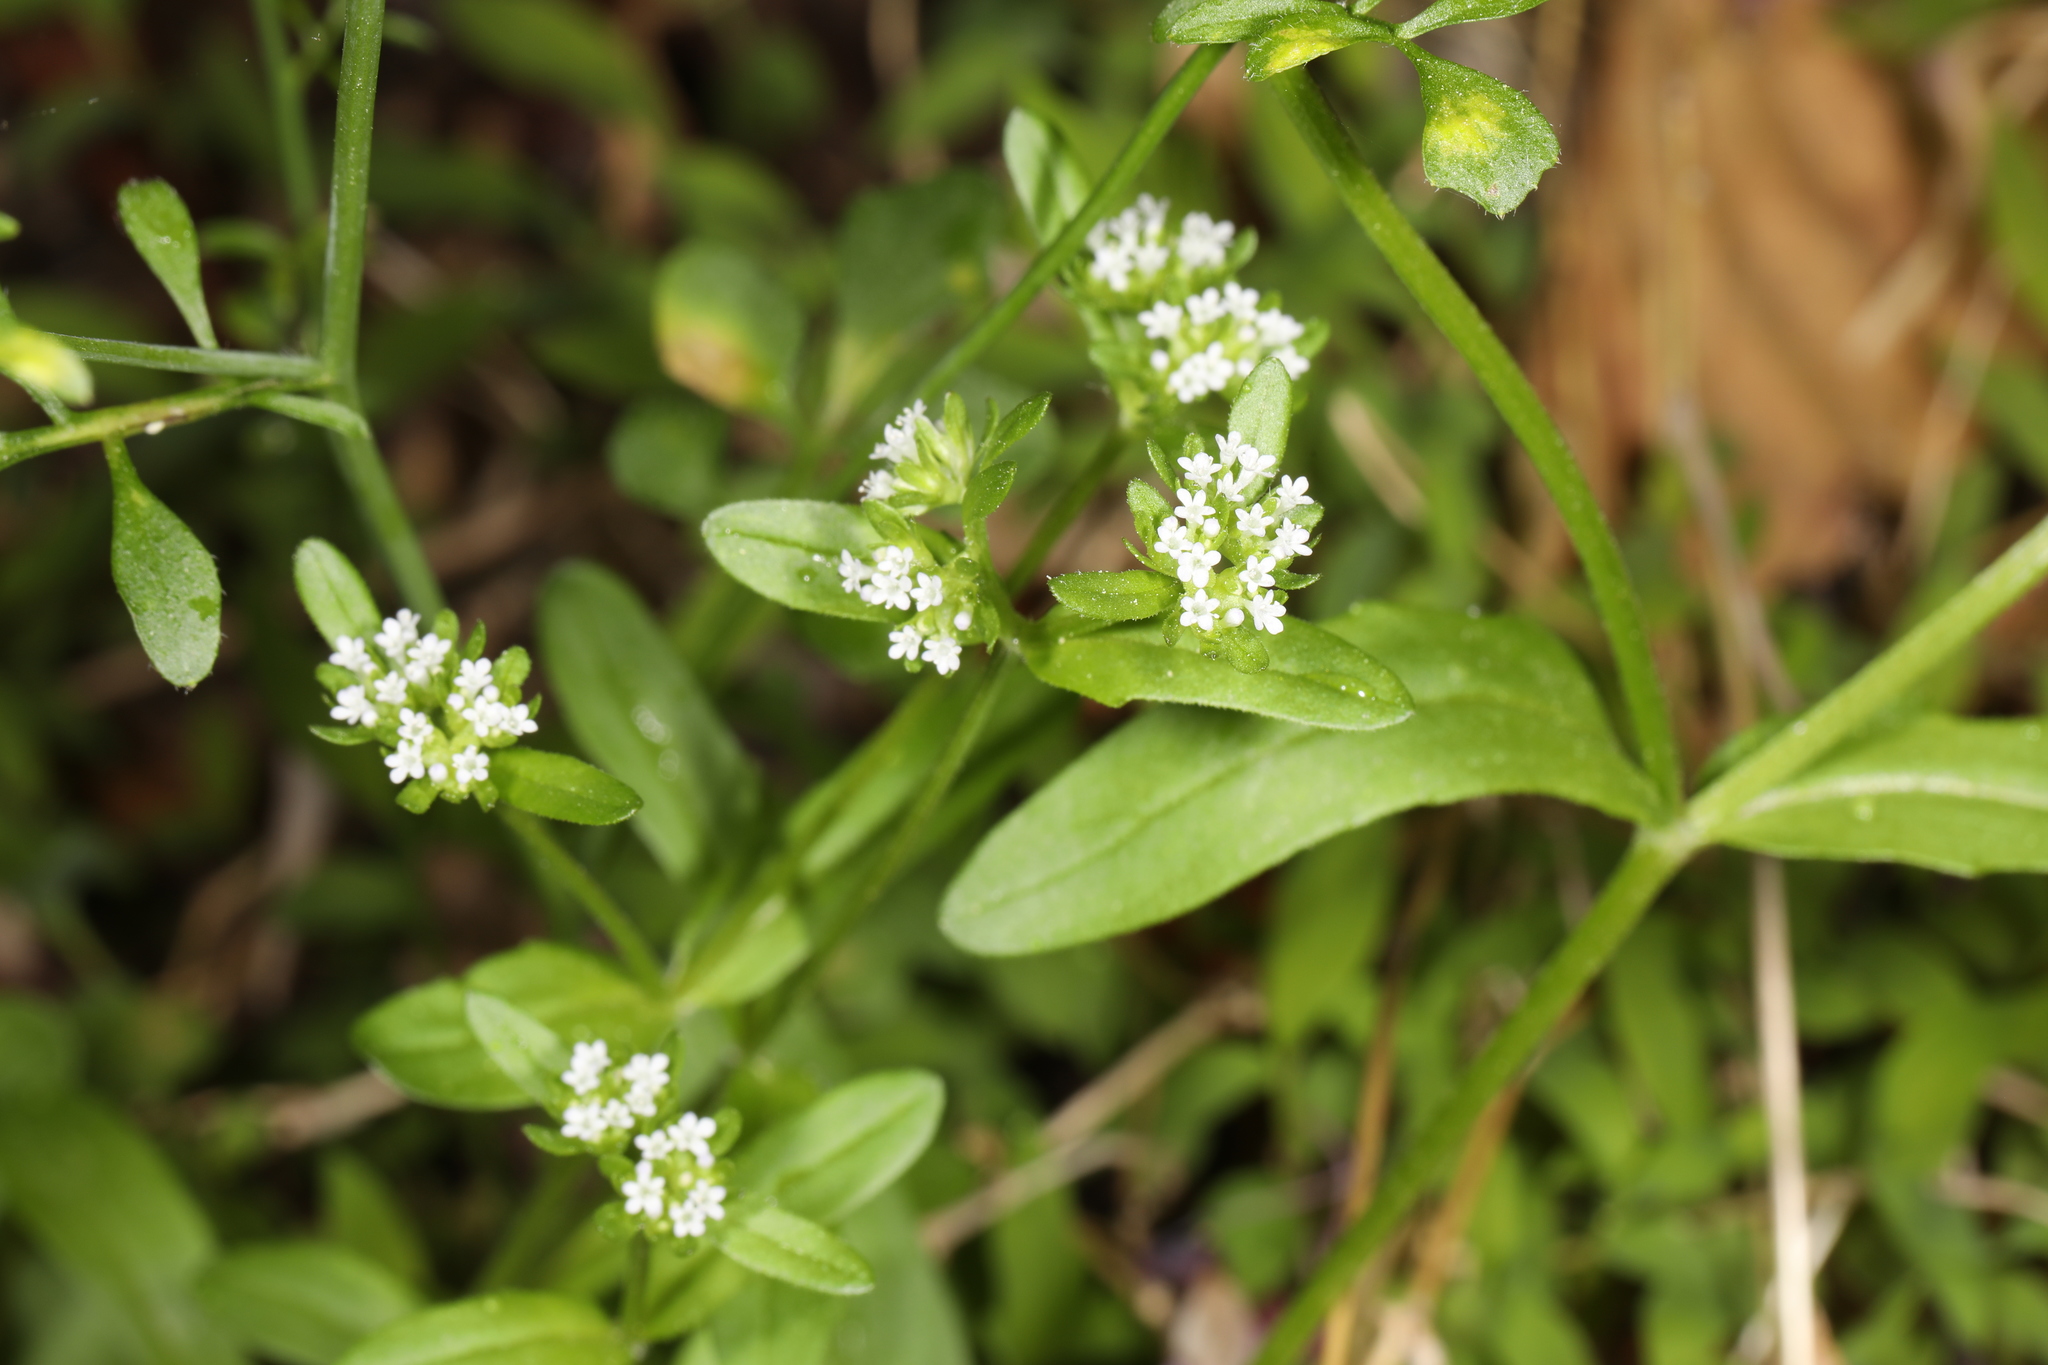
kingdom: Plantae
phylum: Tracheophyta
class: Magnoliopsida
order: Dipsacales
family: Caprifoliaceae
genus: Valerianella
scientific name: Valerianella locusta
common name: Common cornsalad
